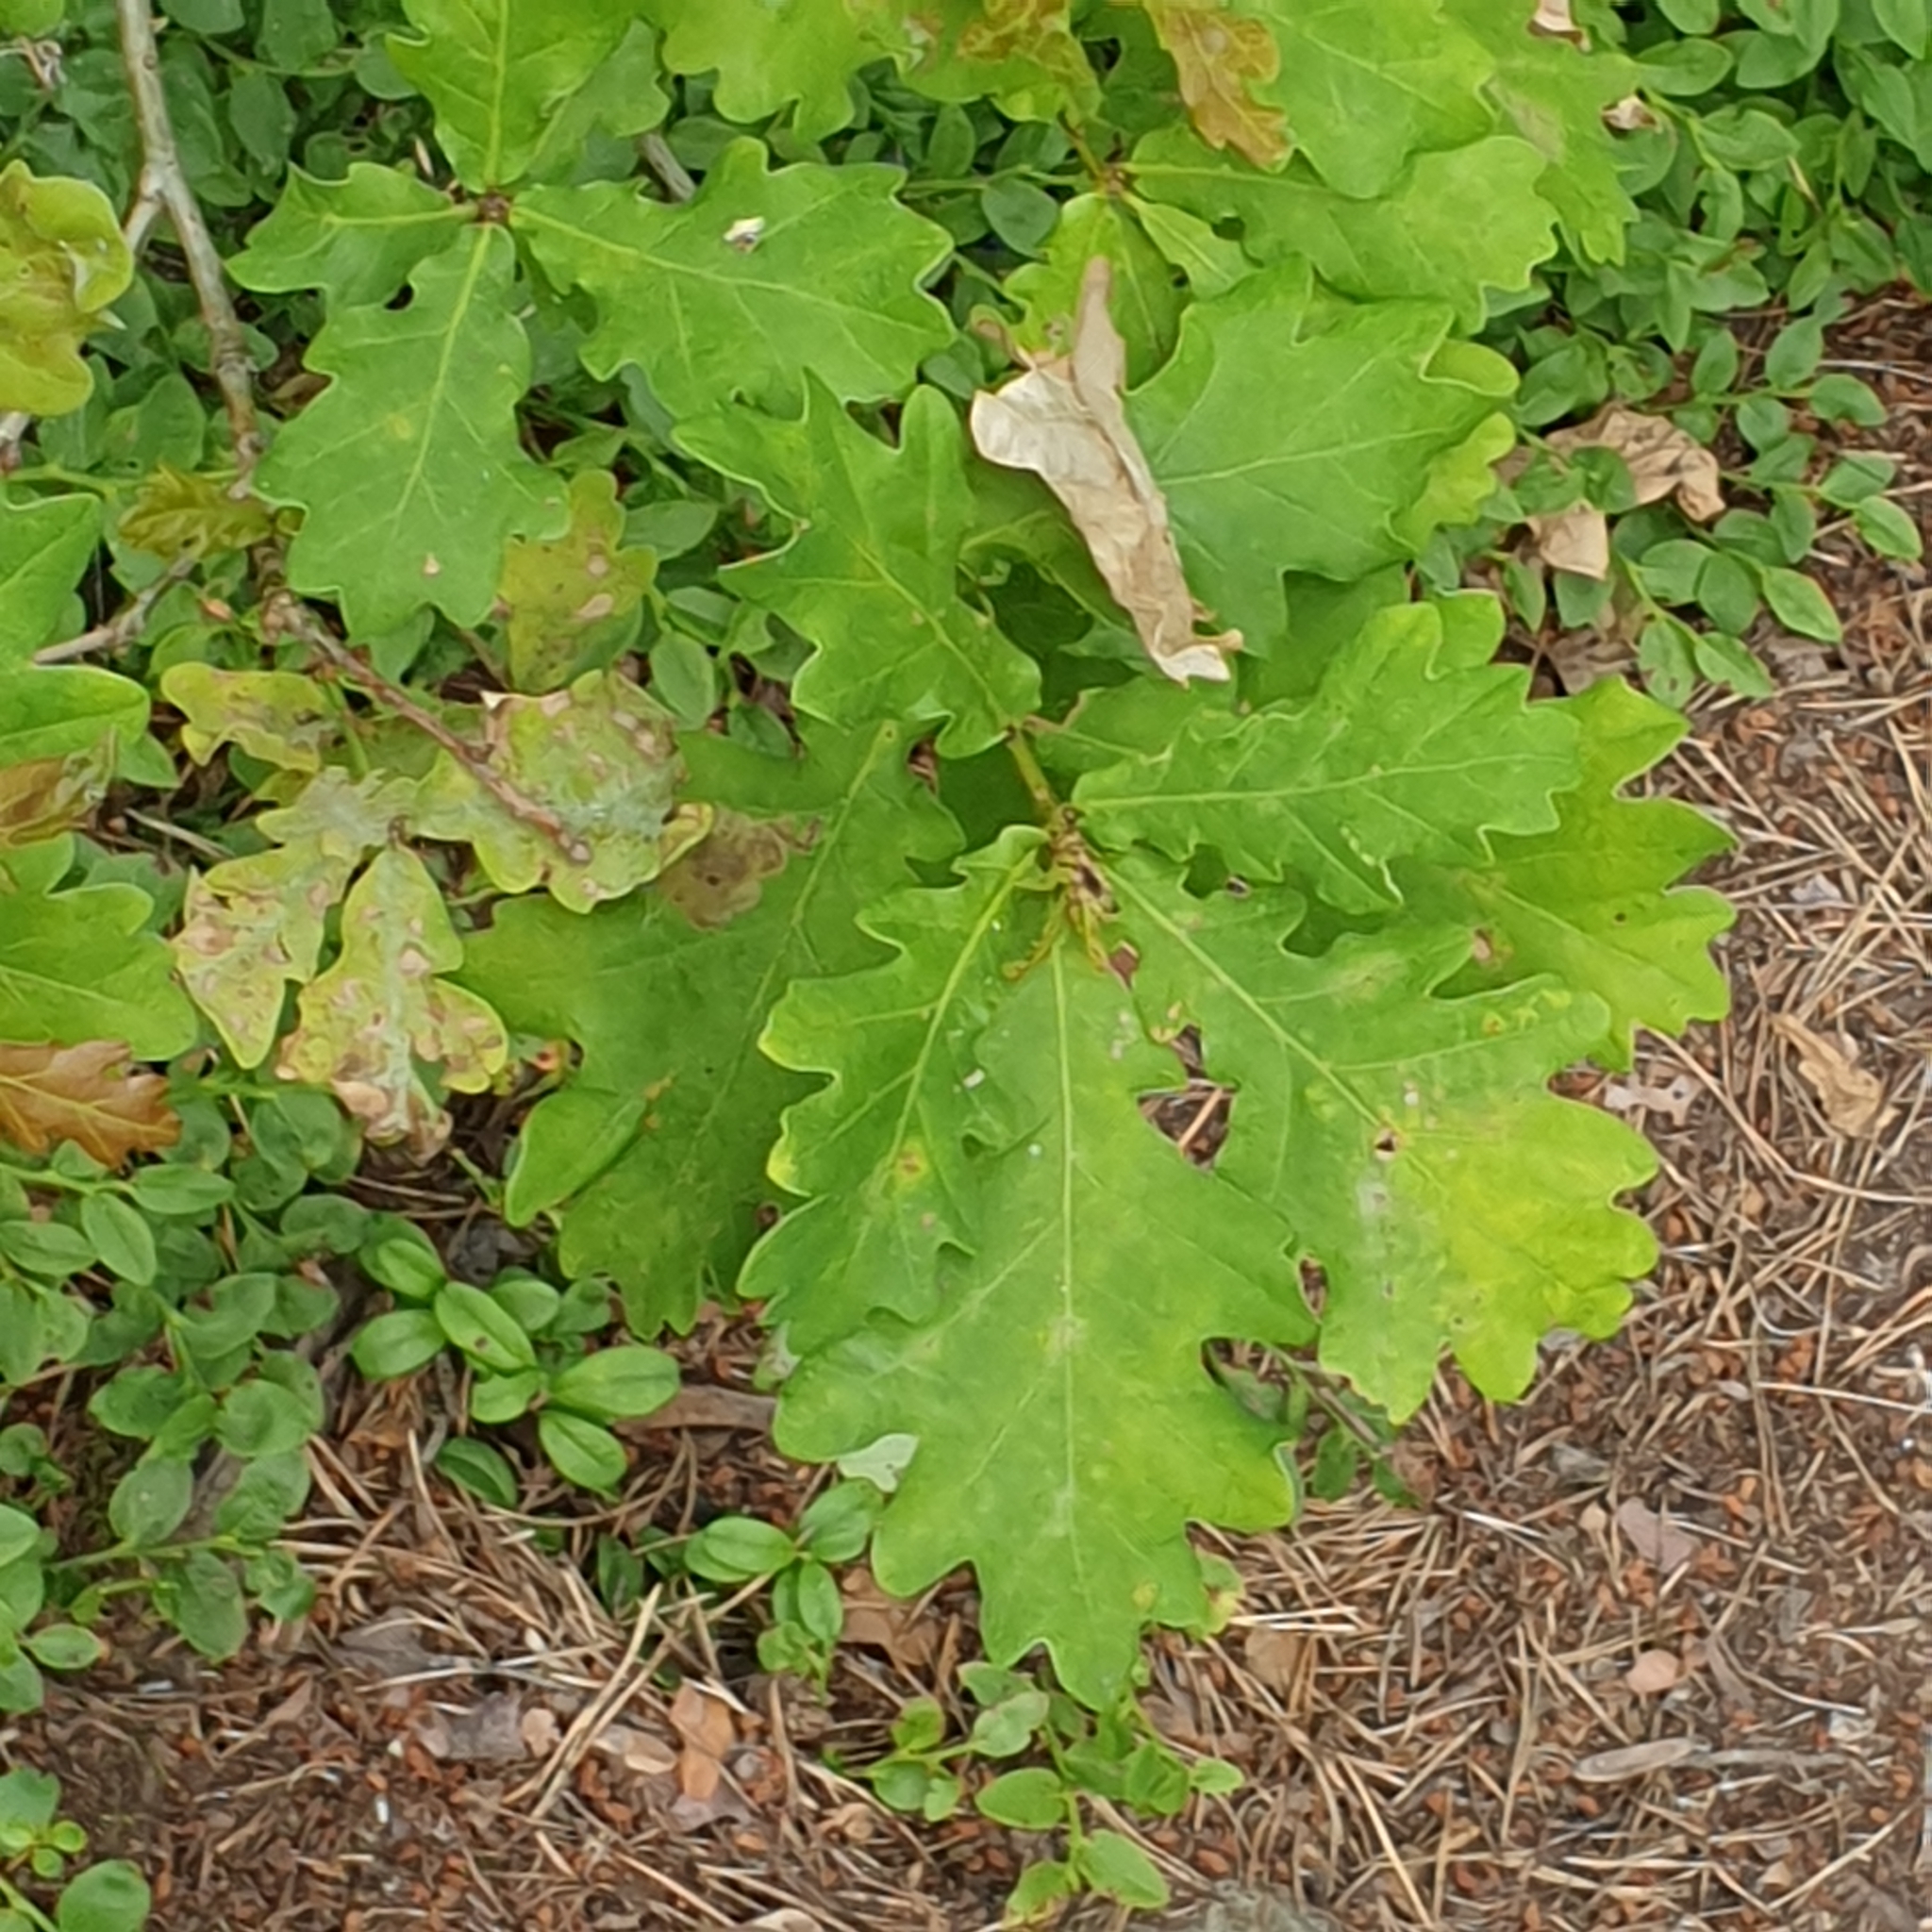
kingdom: Plantae
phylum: Tracheophyta
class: Magnoliopsida
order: Fagales
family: Fagaceae
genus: Quercus
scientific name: Quercus robur
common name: Pedunculate oak
